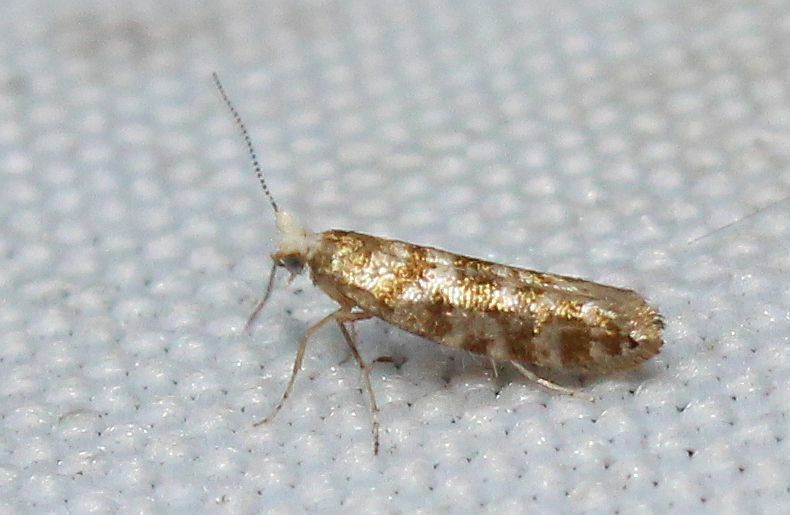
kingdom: Animalia
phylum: Arthropoda
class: Insecta
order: Lepidoptera
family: Argyresthiidae
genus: Argyresthia
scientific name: Argyresthia cupressella
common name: Cypress tip moth
